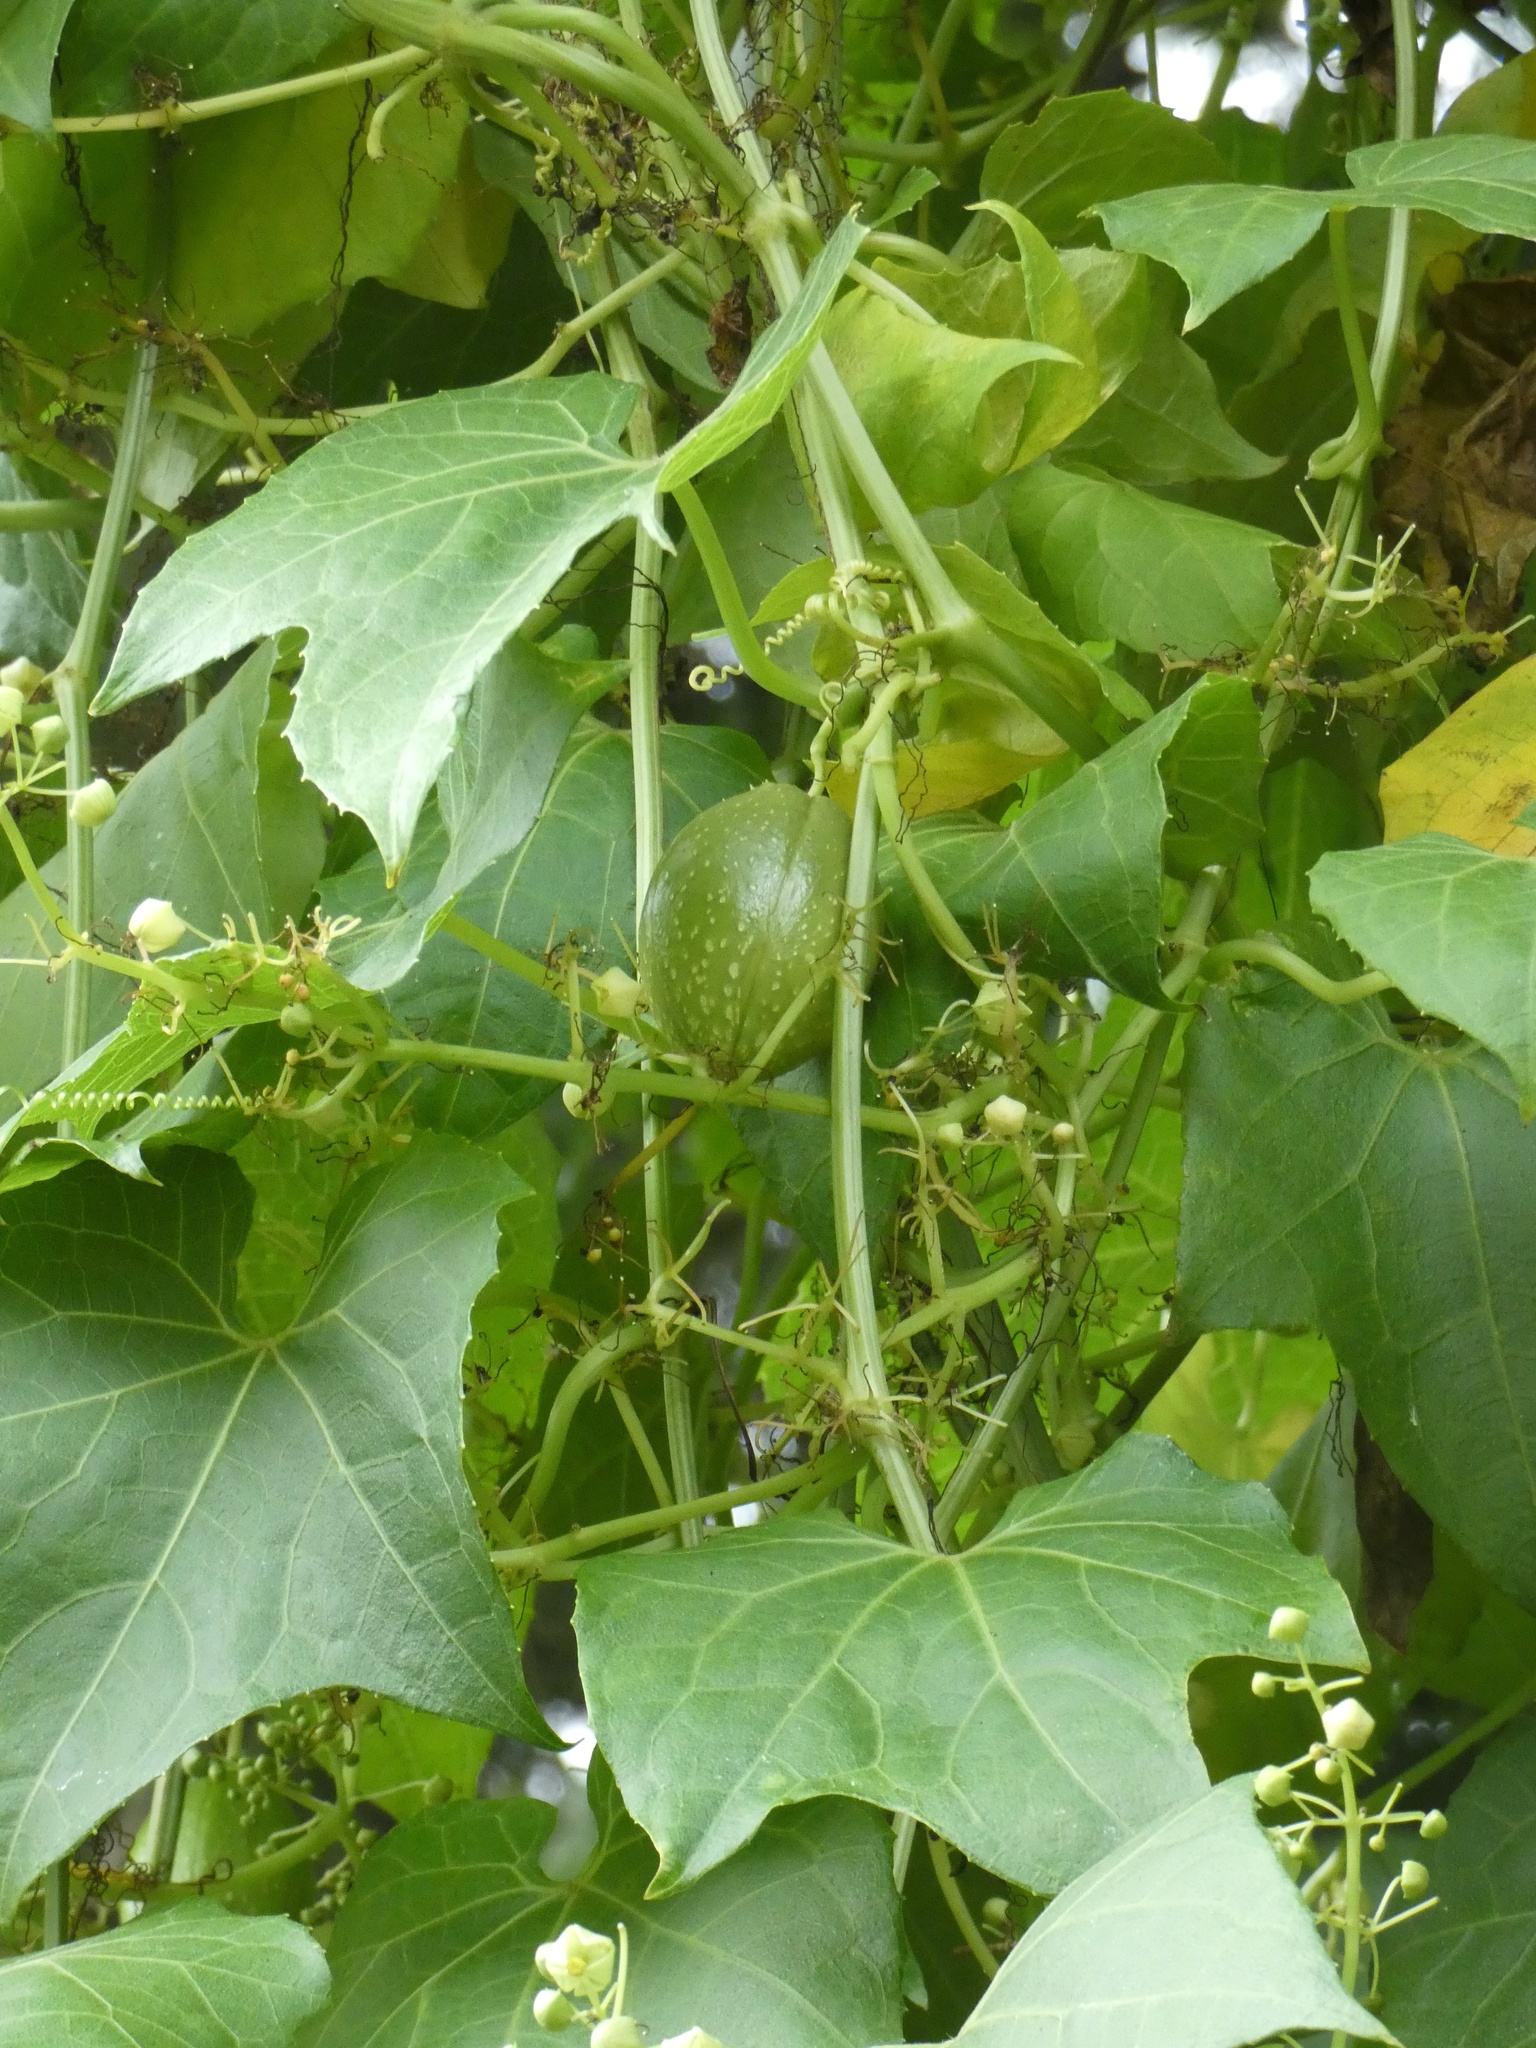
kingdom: Plantae
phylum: Tracheophyta
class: Magnoliopsida
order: Cucurbitales
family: Cucurbitaceae
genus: Frantzia
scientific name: Frantzia tacaco
